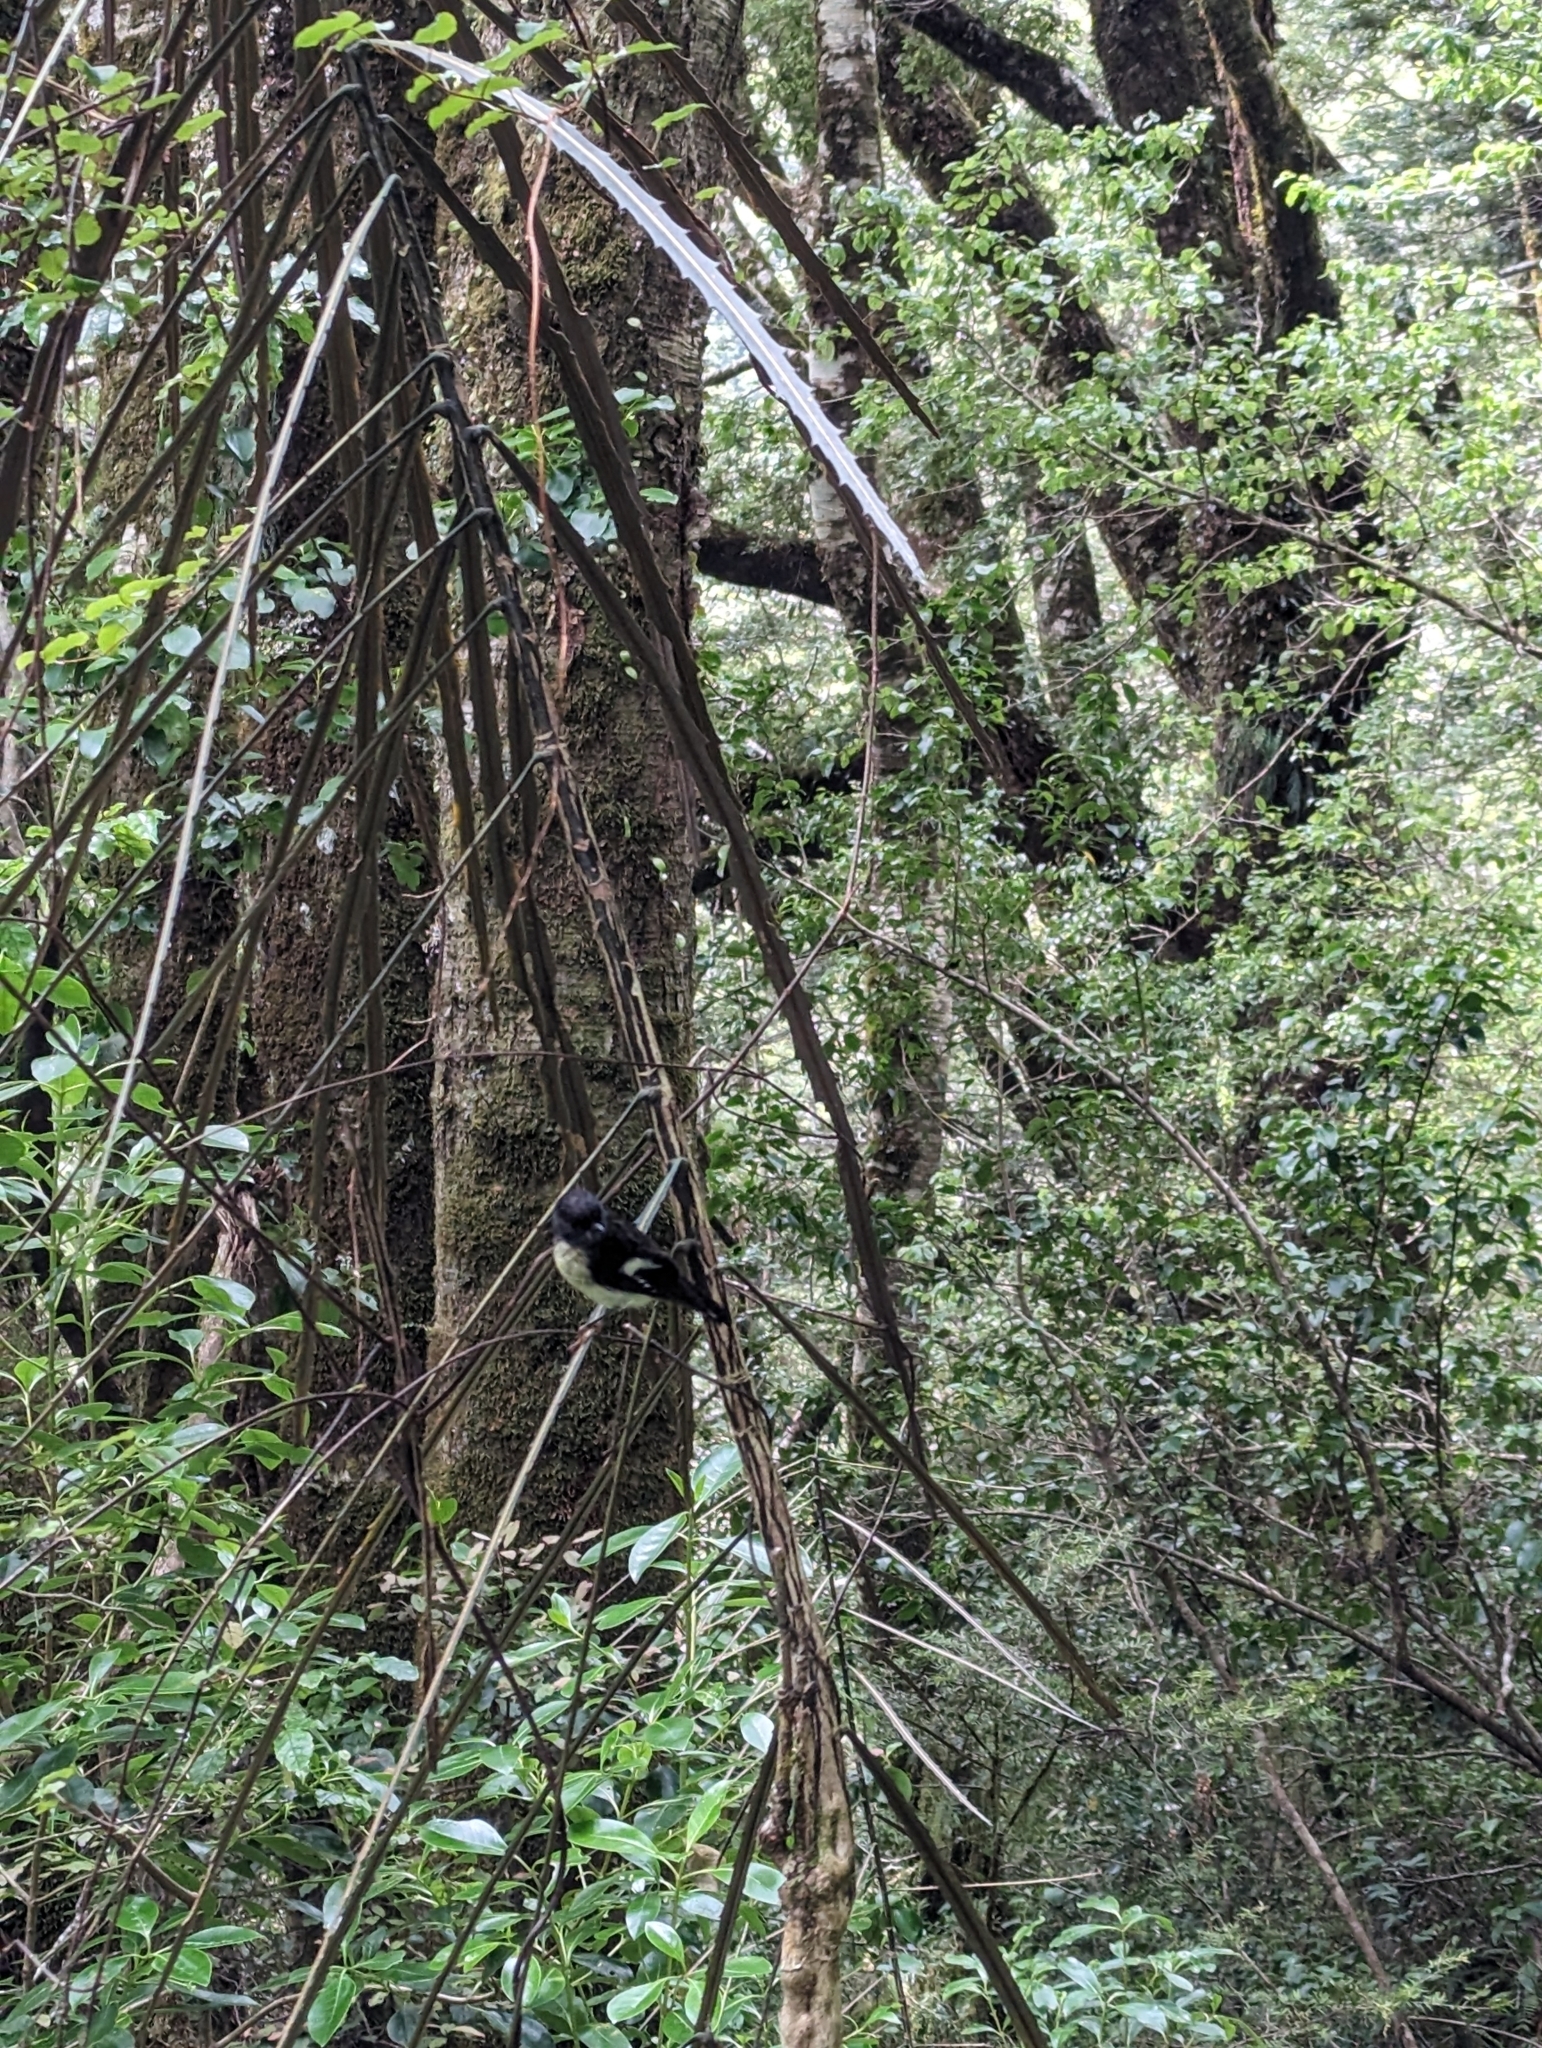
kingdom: Animalia
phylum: Chordata
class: Aves
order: Passeriformes
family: Petroicidae
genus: Petroica
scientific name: Petroica macrocephala
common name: Tomtit
